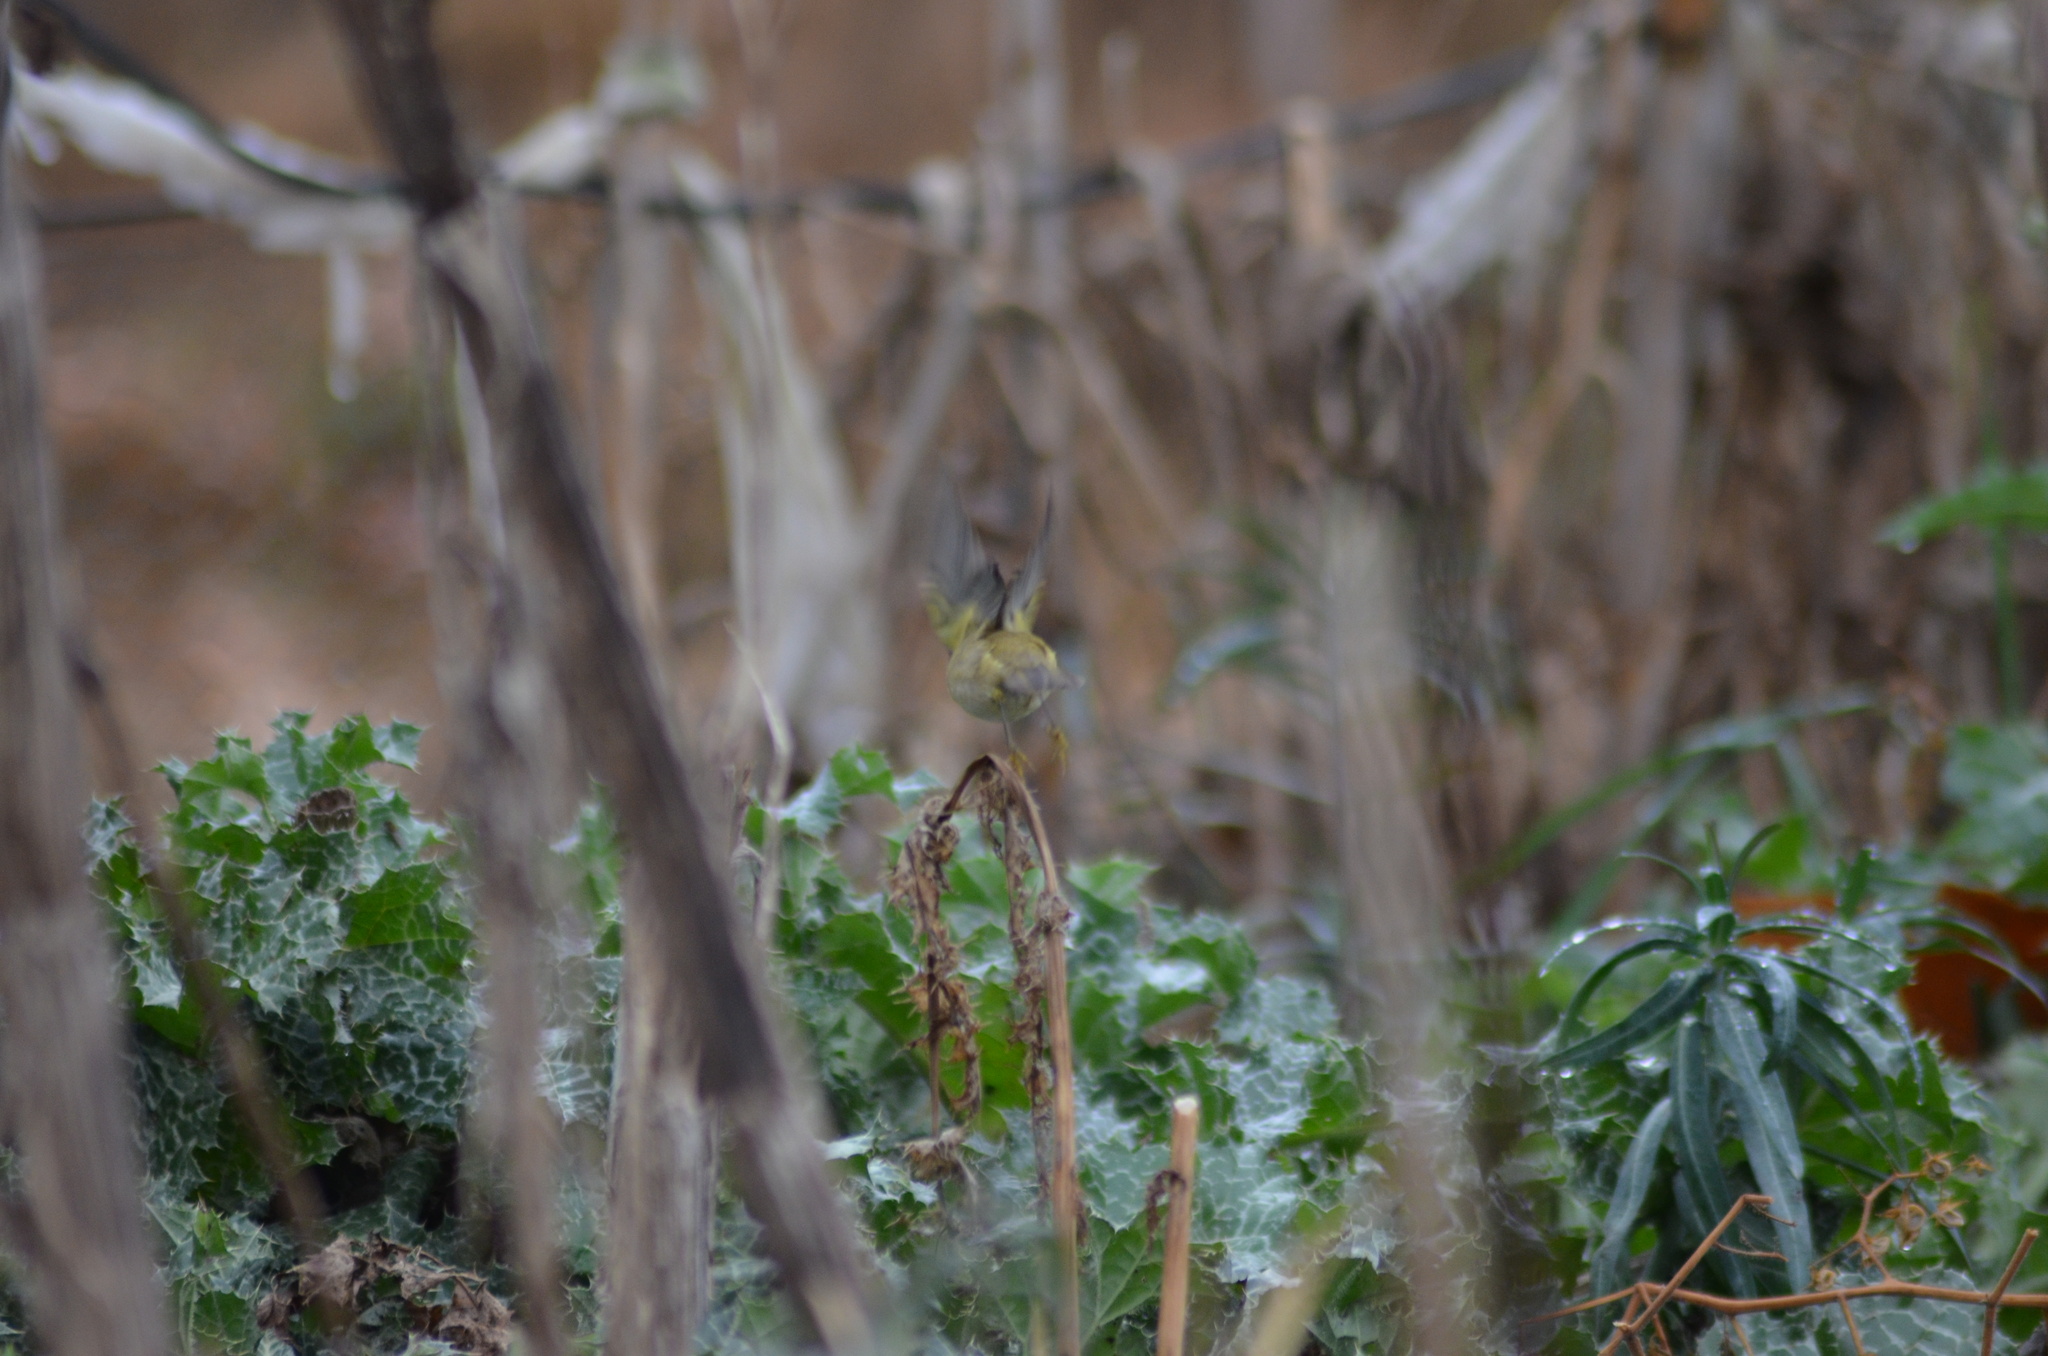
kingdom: Animalia
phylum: Chordata
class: Aves
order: Passeriformes
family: Phylloscopidae
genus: Phylloscopus
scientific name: Phylloscopus collybita
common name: Common chiffchaff
